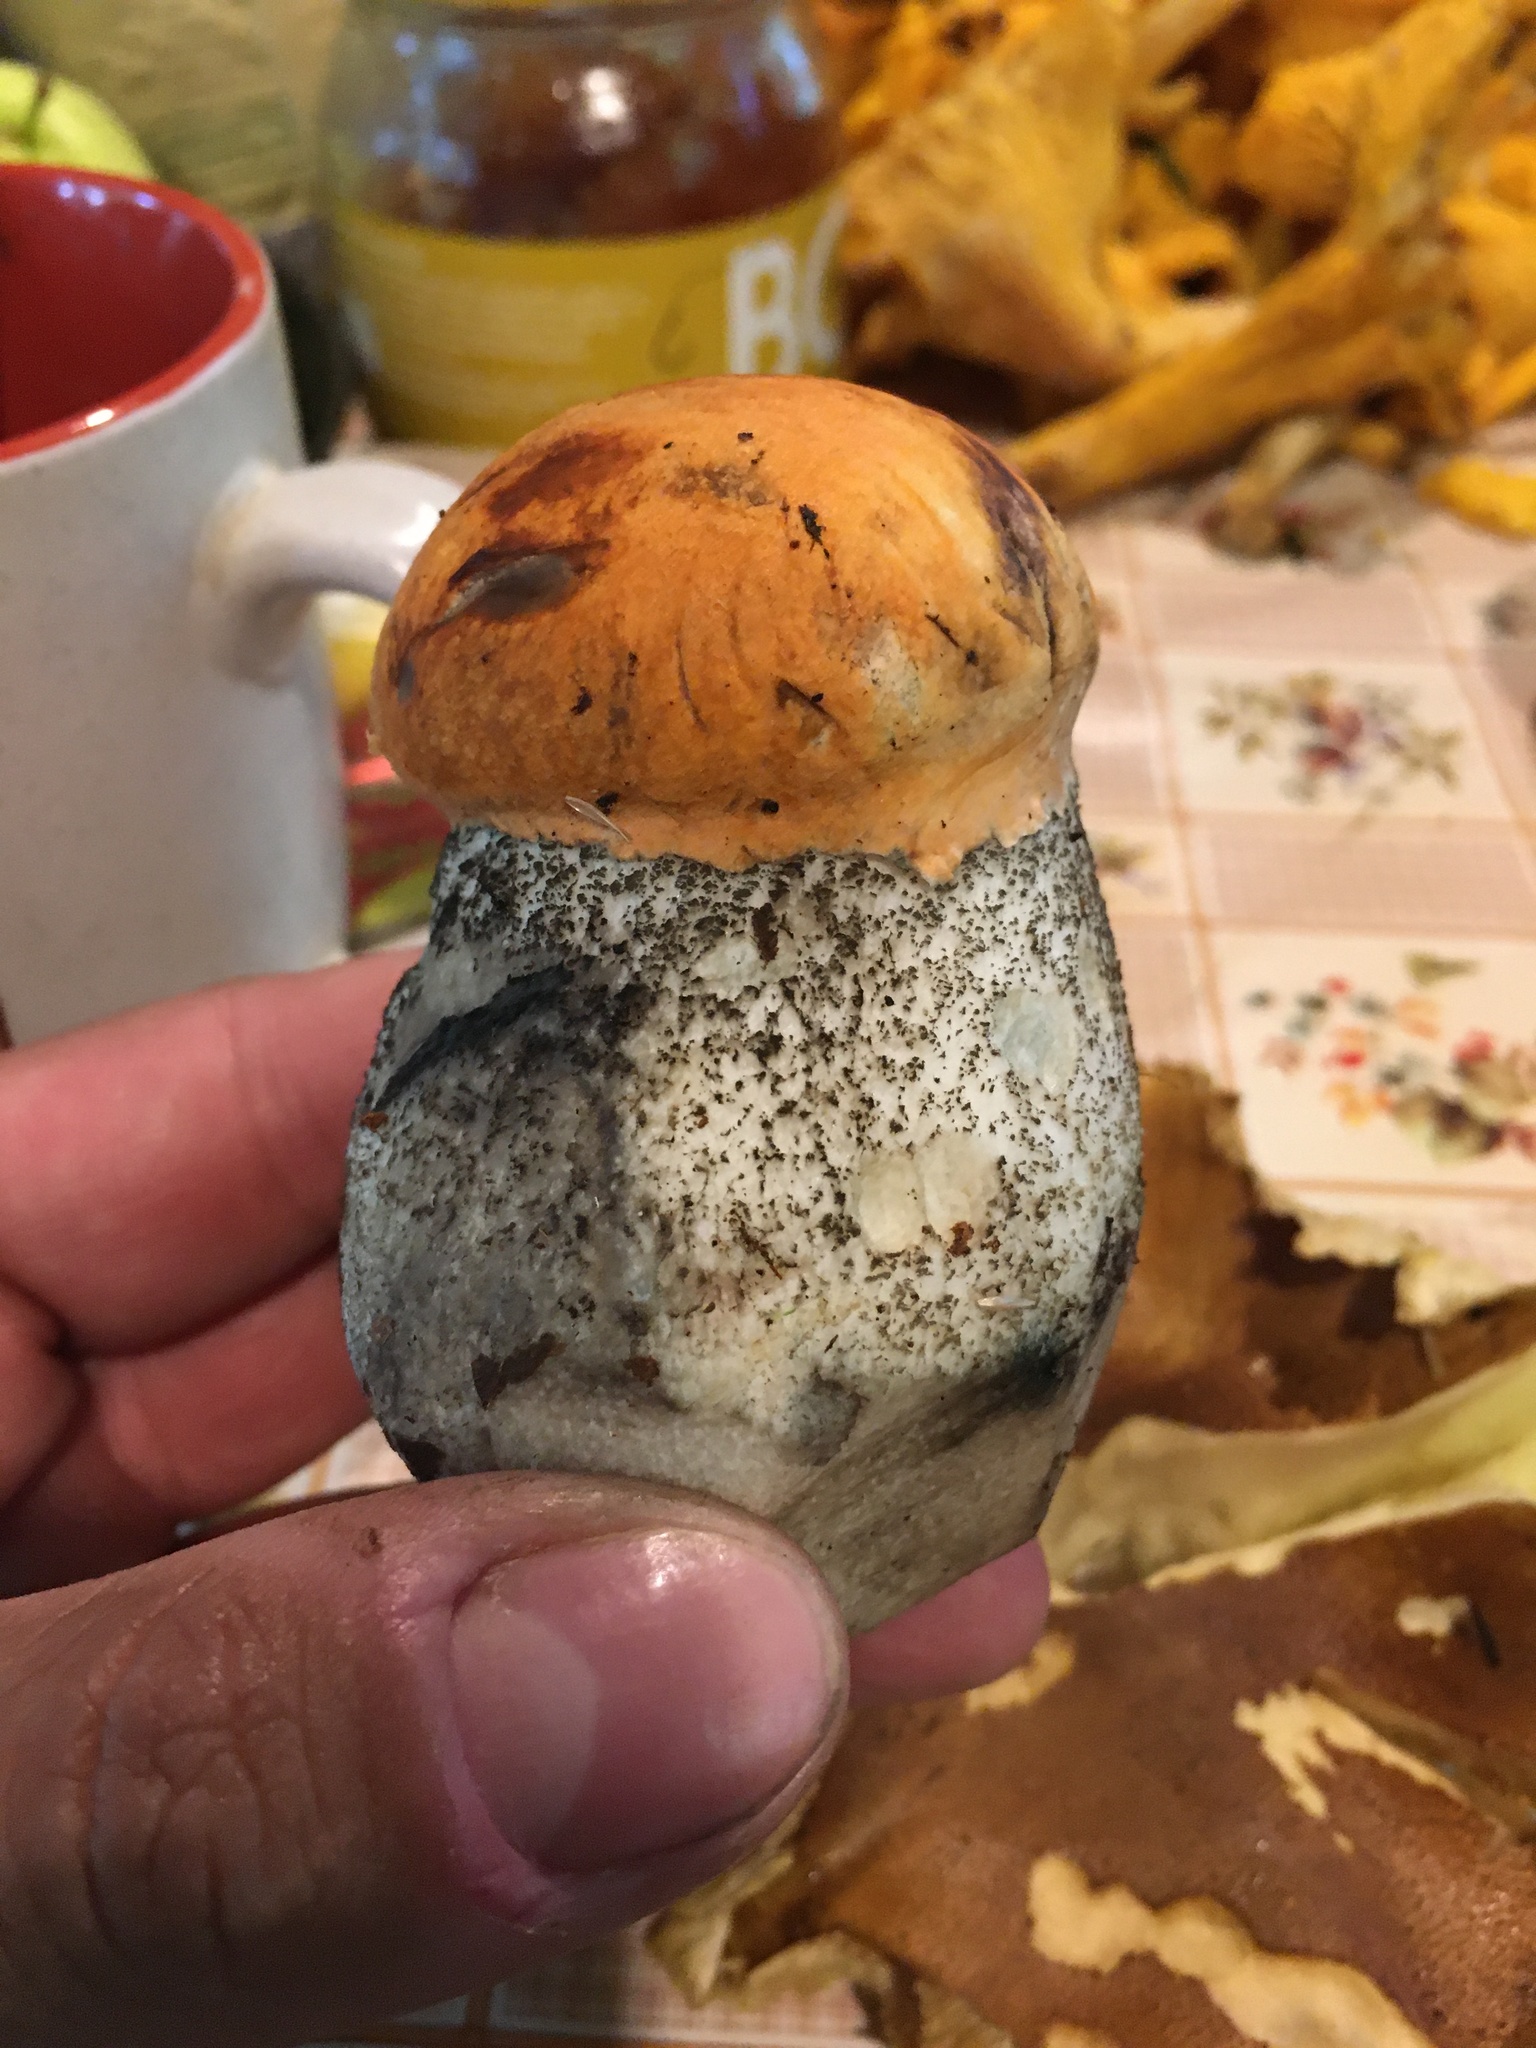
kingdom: Fungi
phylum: Basidiomycota
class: Agaricomycetes
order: Boletales
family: Boletaceae
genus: Leccinum
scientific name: Leccinum versipelle
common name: Orange birch bolete
